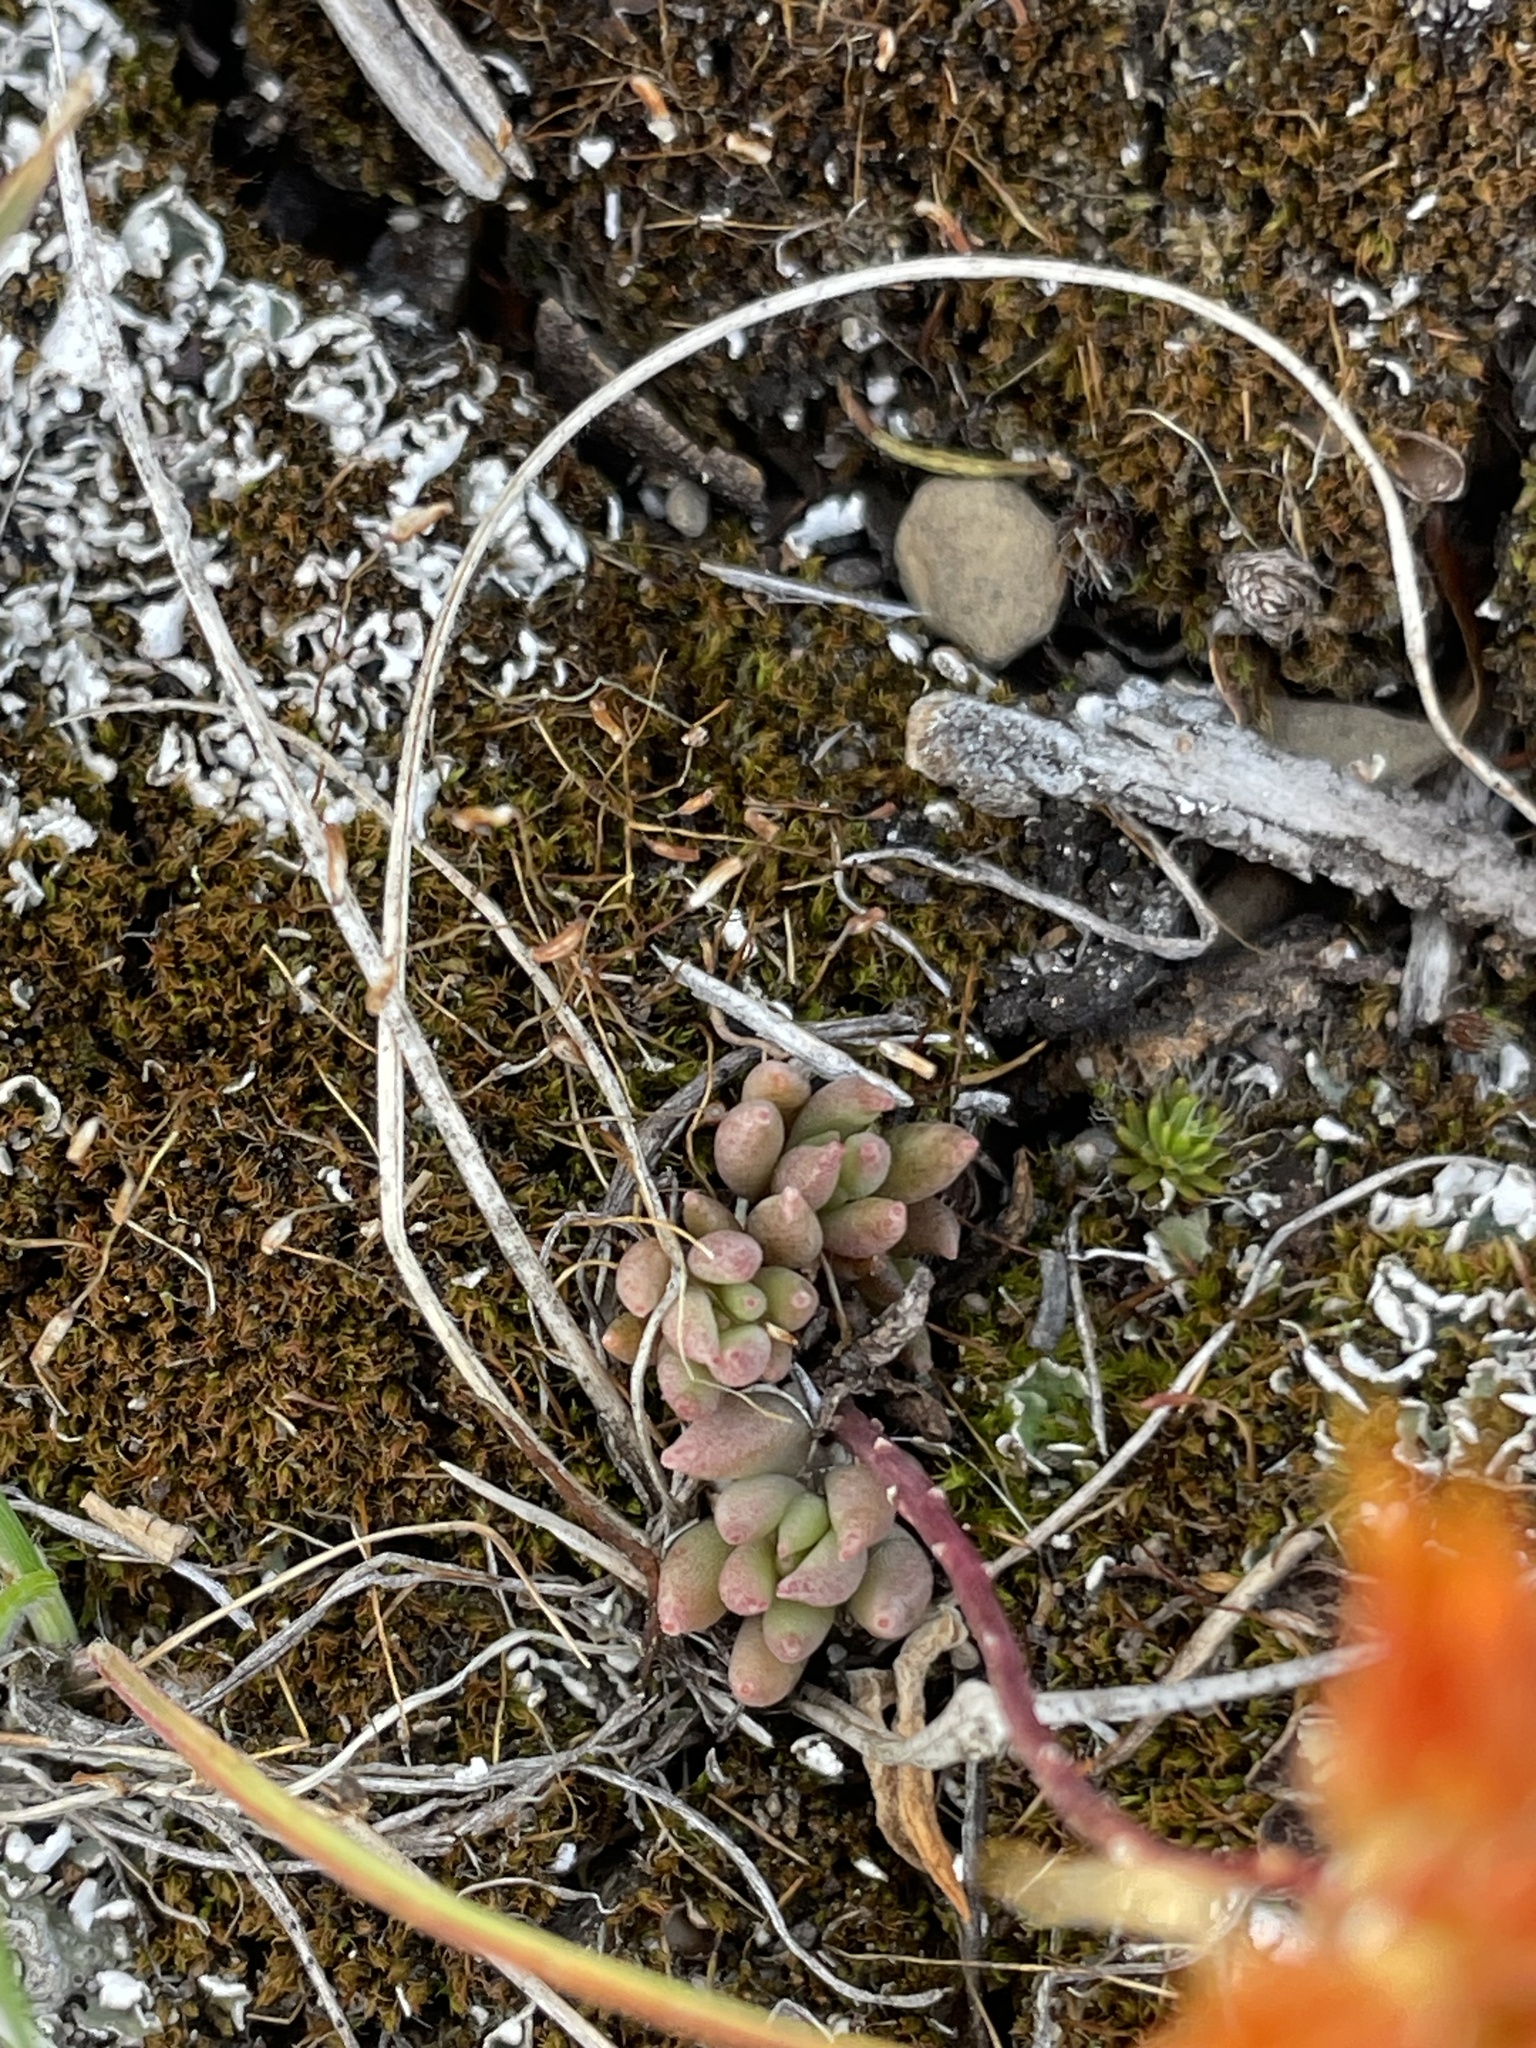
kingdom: Plantae
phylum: Tracheophyta
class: Magnoliopsida
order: Saxifragales
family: Crassulaceae
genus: Sedum
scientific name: Sedum lanceolatum
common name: Common stonecrop
